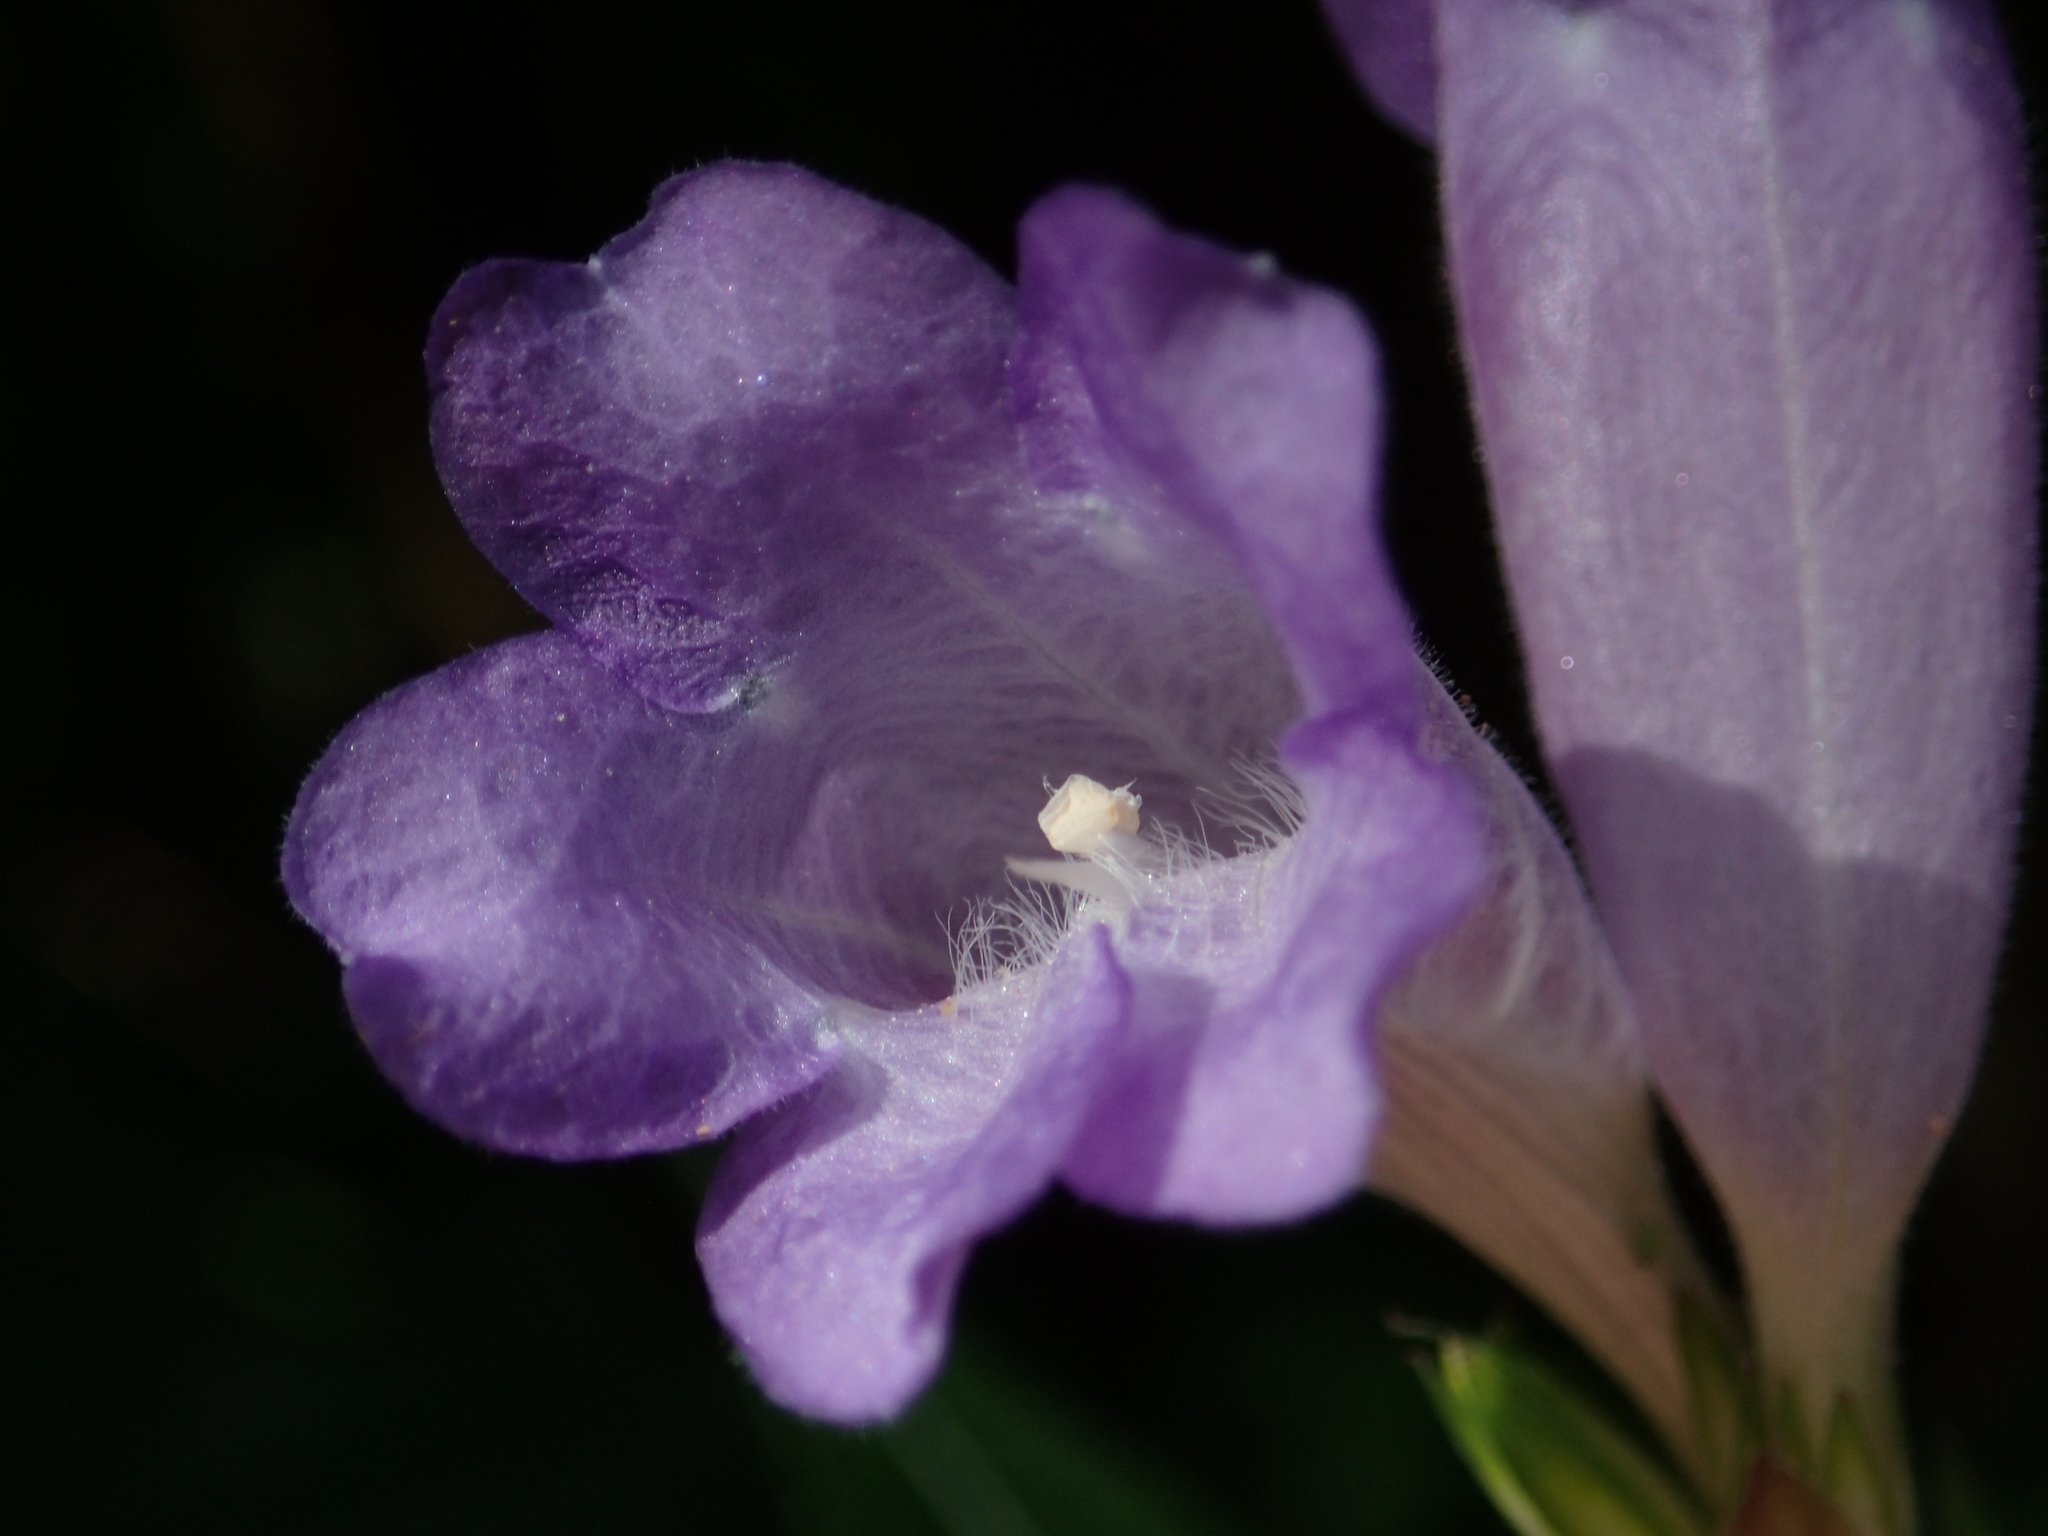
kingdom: Plantae
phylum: Tracheophyta
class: Magnoliopsida
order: Lamiales
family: Acanthaceae
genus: Strobilanthes
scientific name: Strobilanthes formosana
